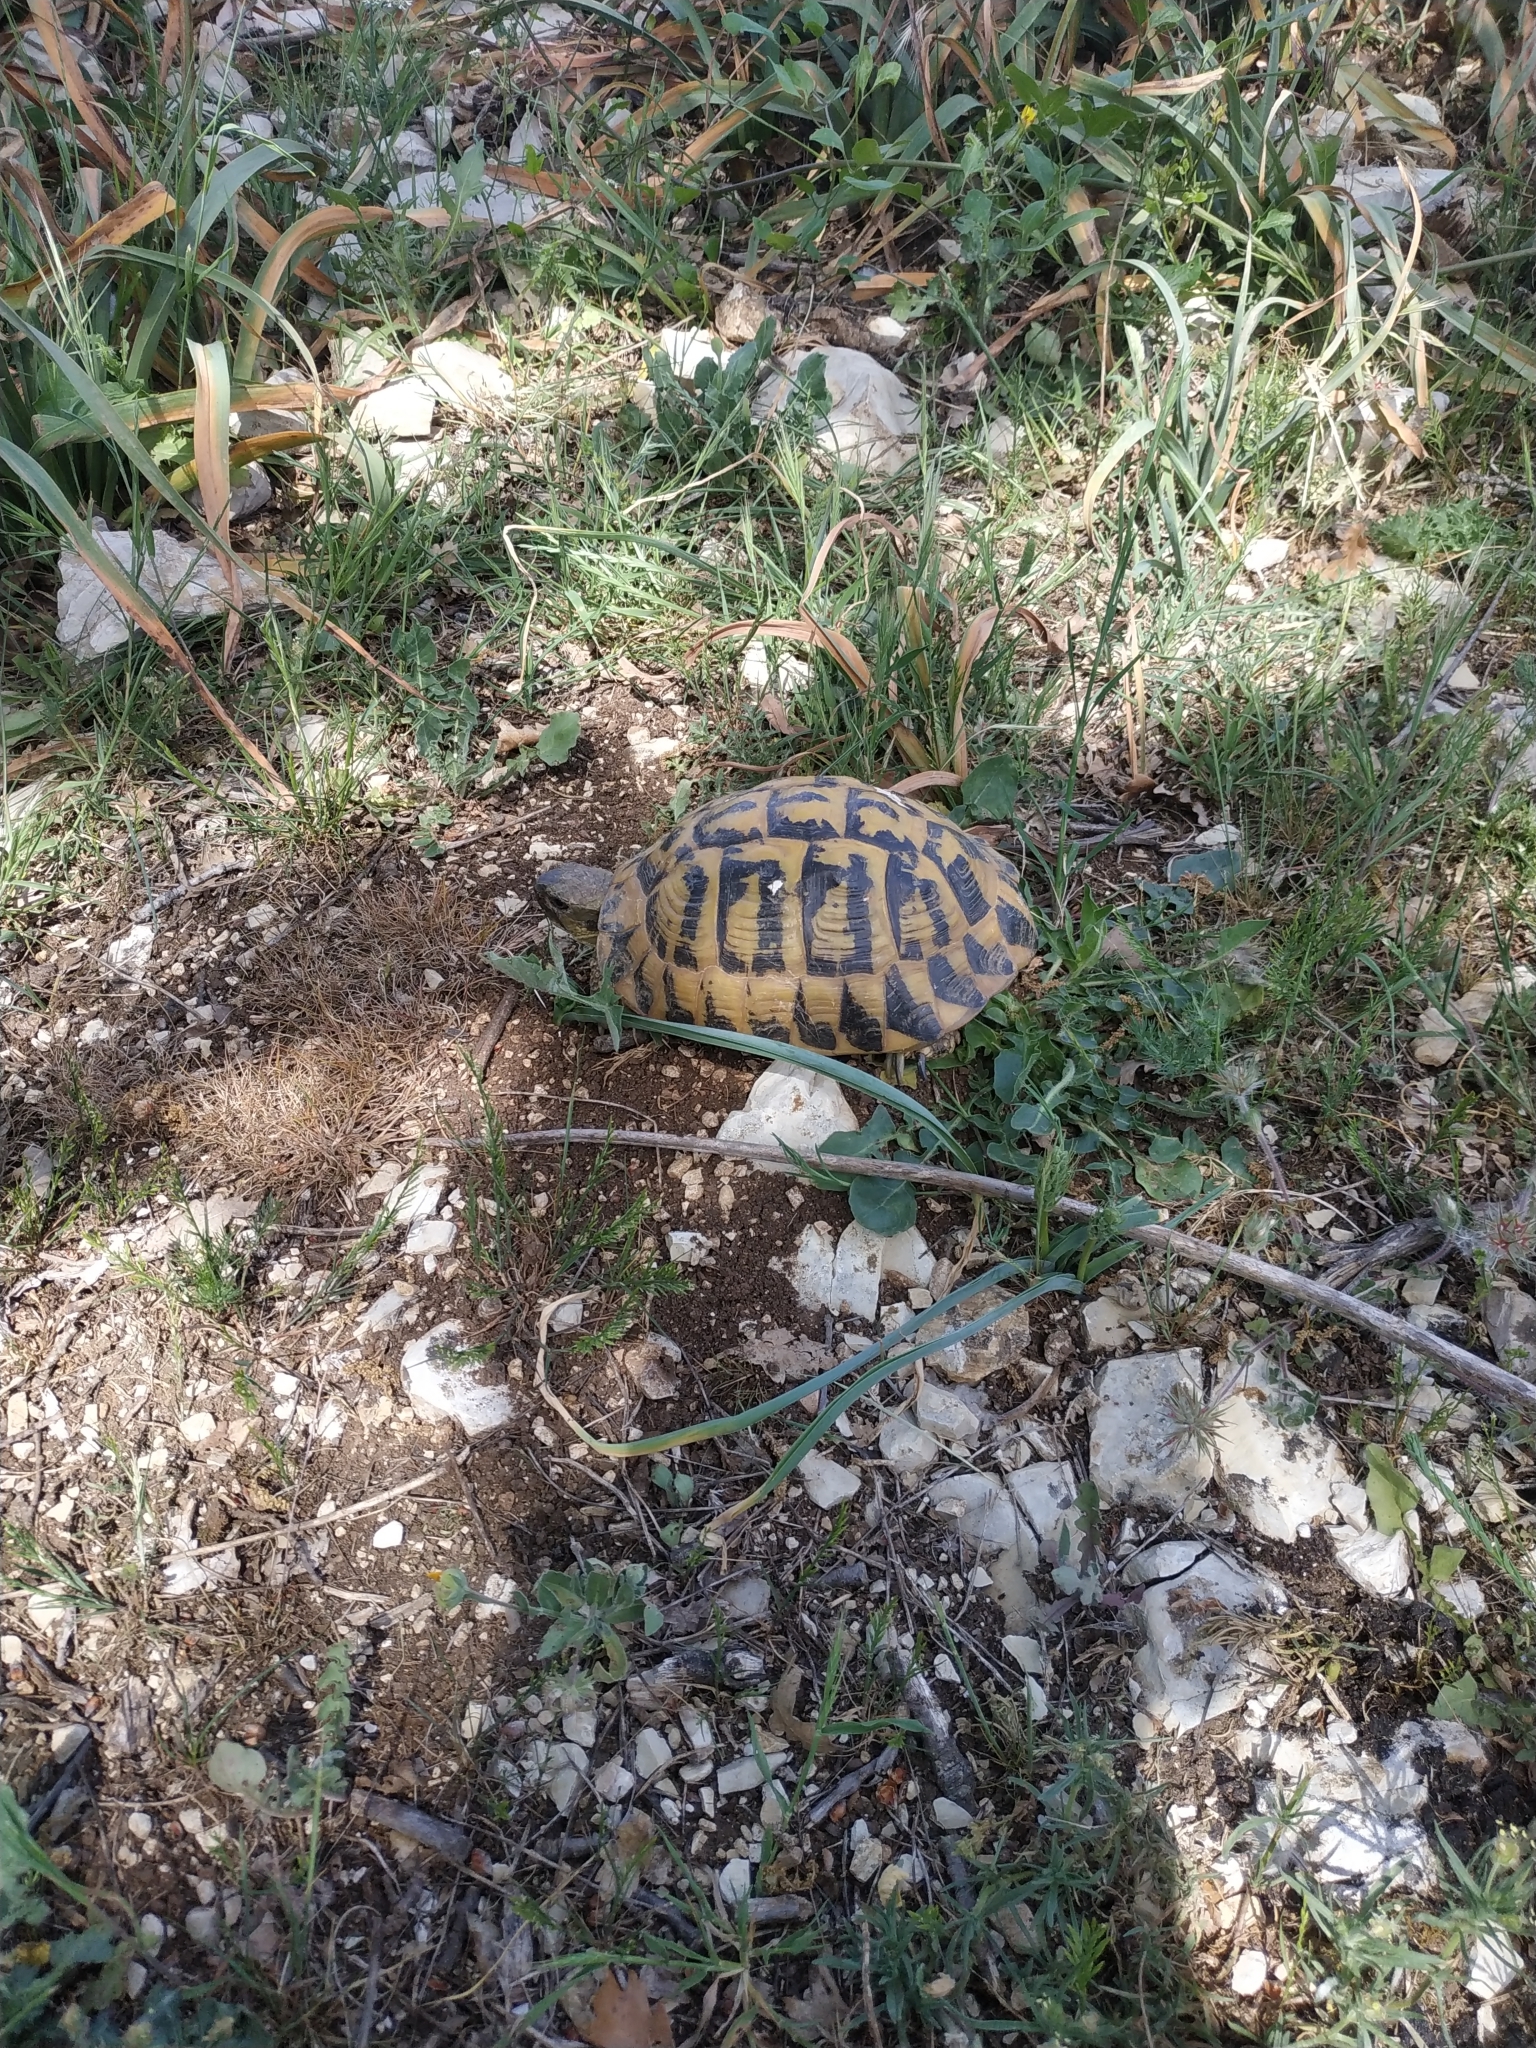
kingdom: Animalia
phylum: Chordata
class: Testudines
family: Testudinidae
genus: Testudo
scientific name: Testudo hermanni
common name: Hermann's tortoise
